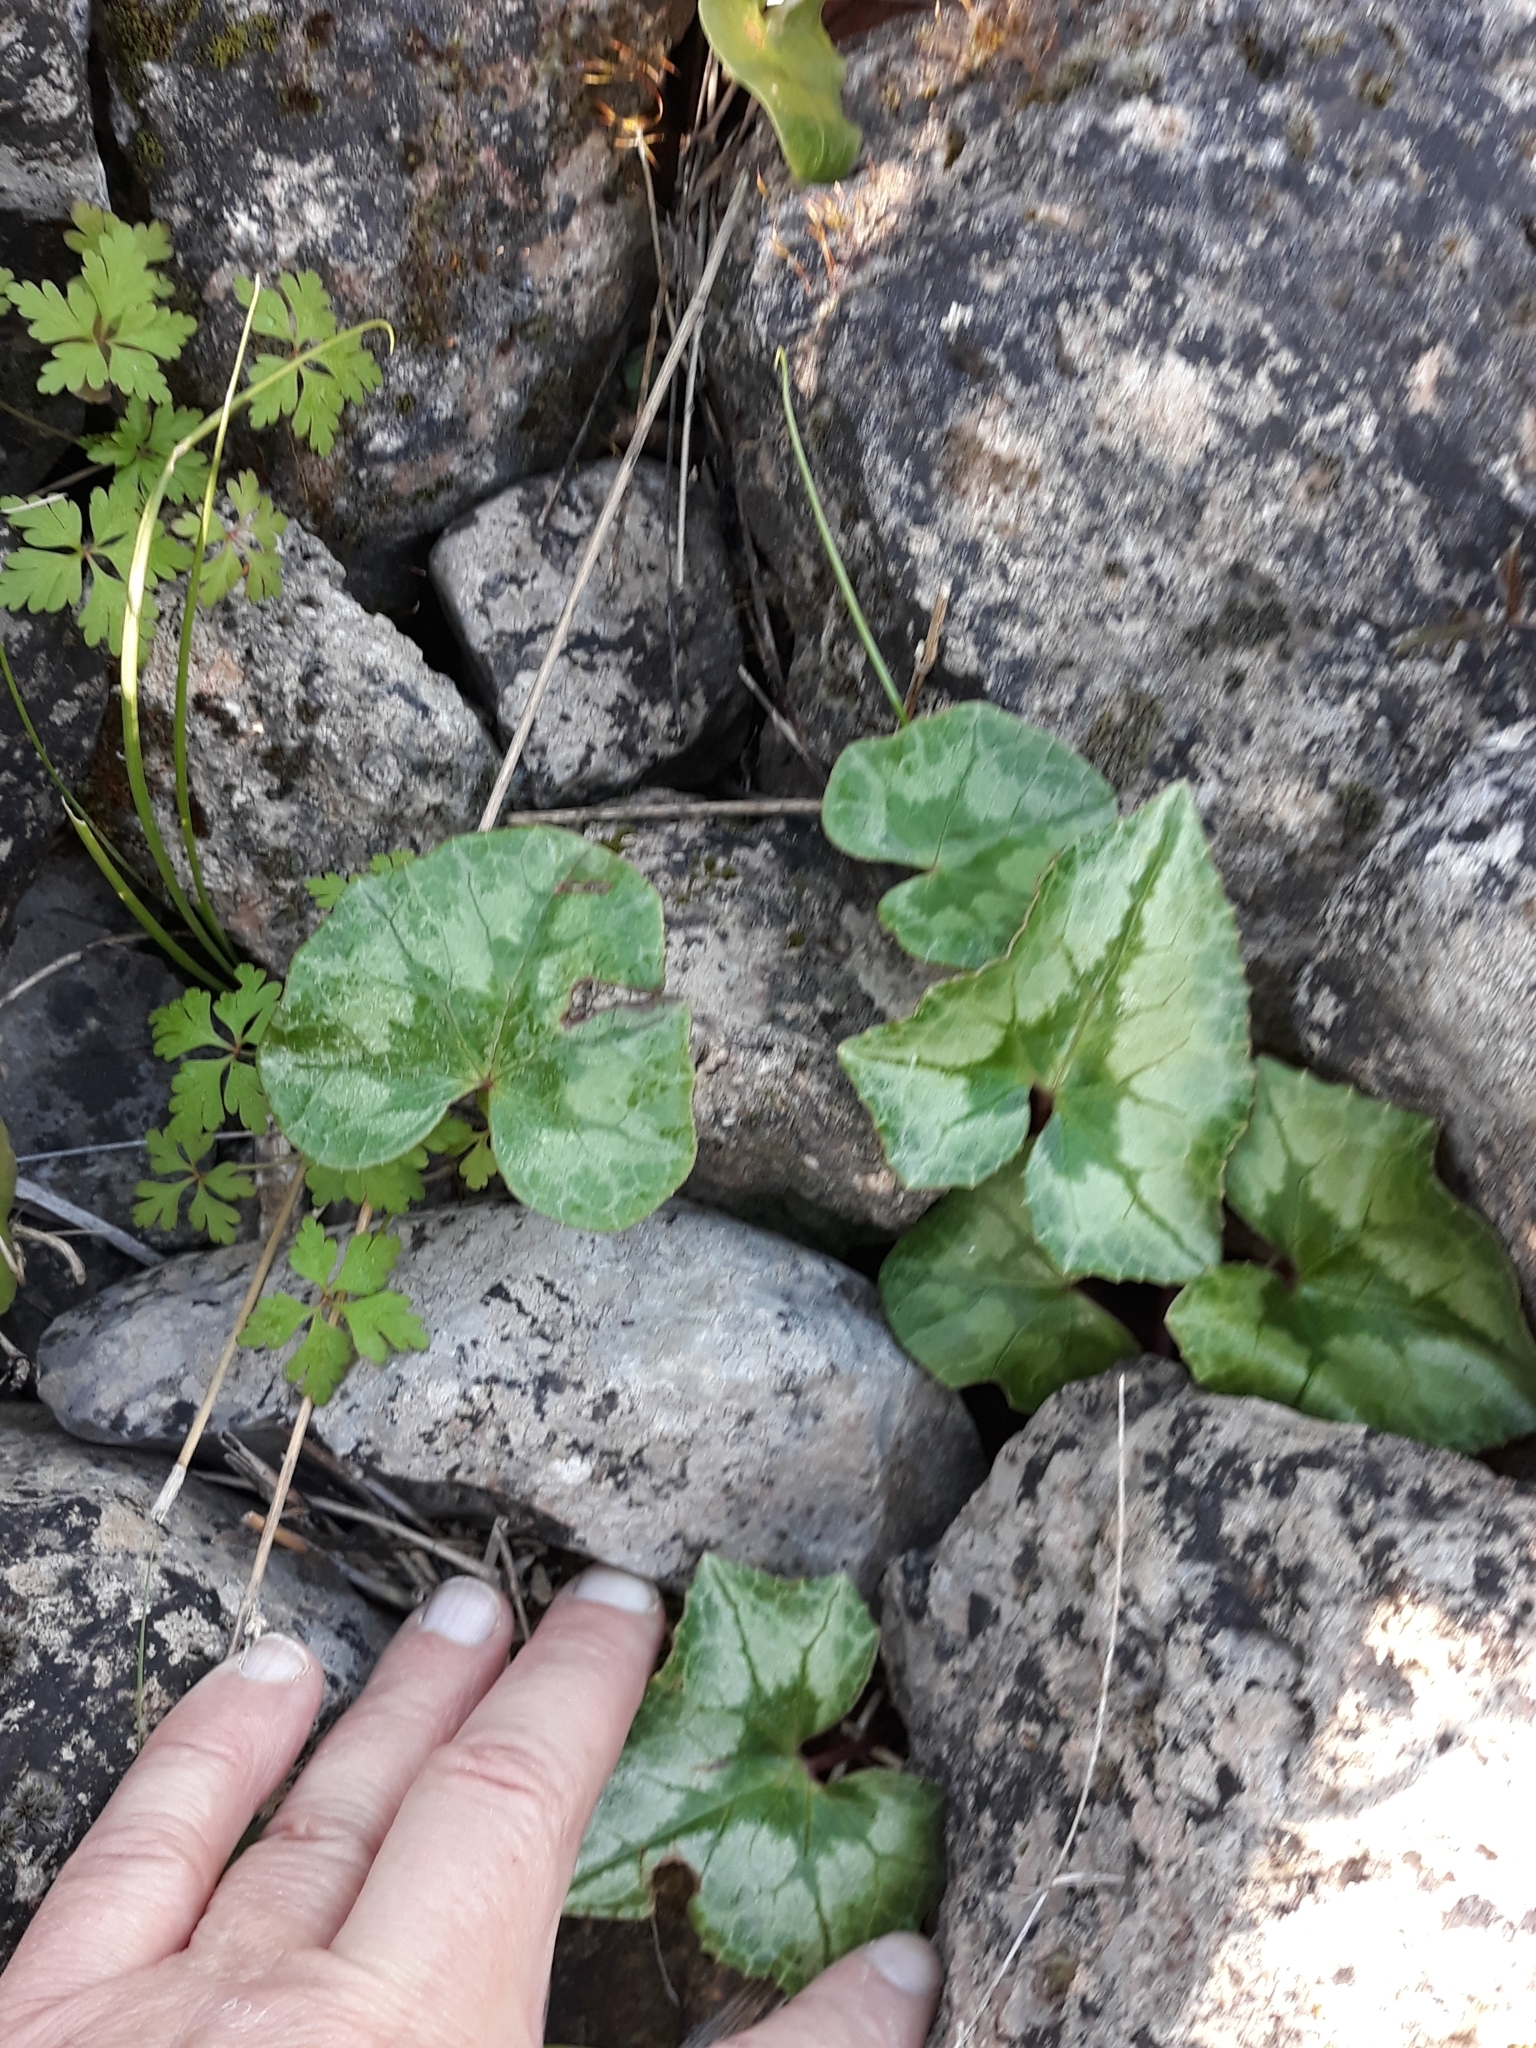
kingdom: Plantae
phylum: Tracheophyta
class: Magnoliopsida
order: Ericales
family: Primulaceae
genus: Cyclamen
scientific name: Cyclamen africanum
